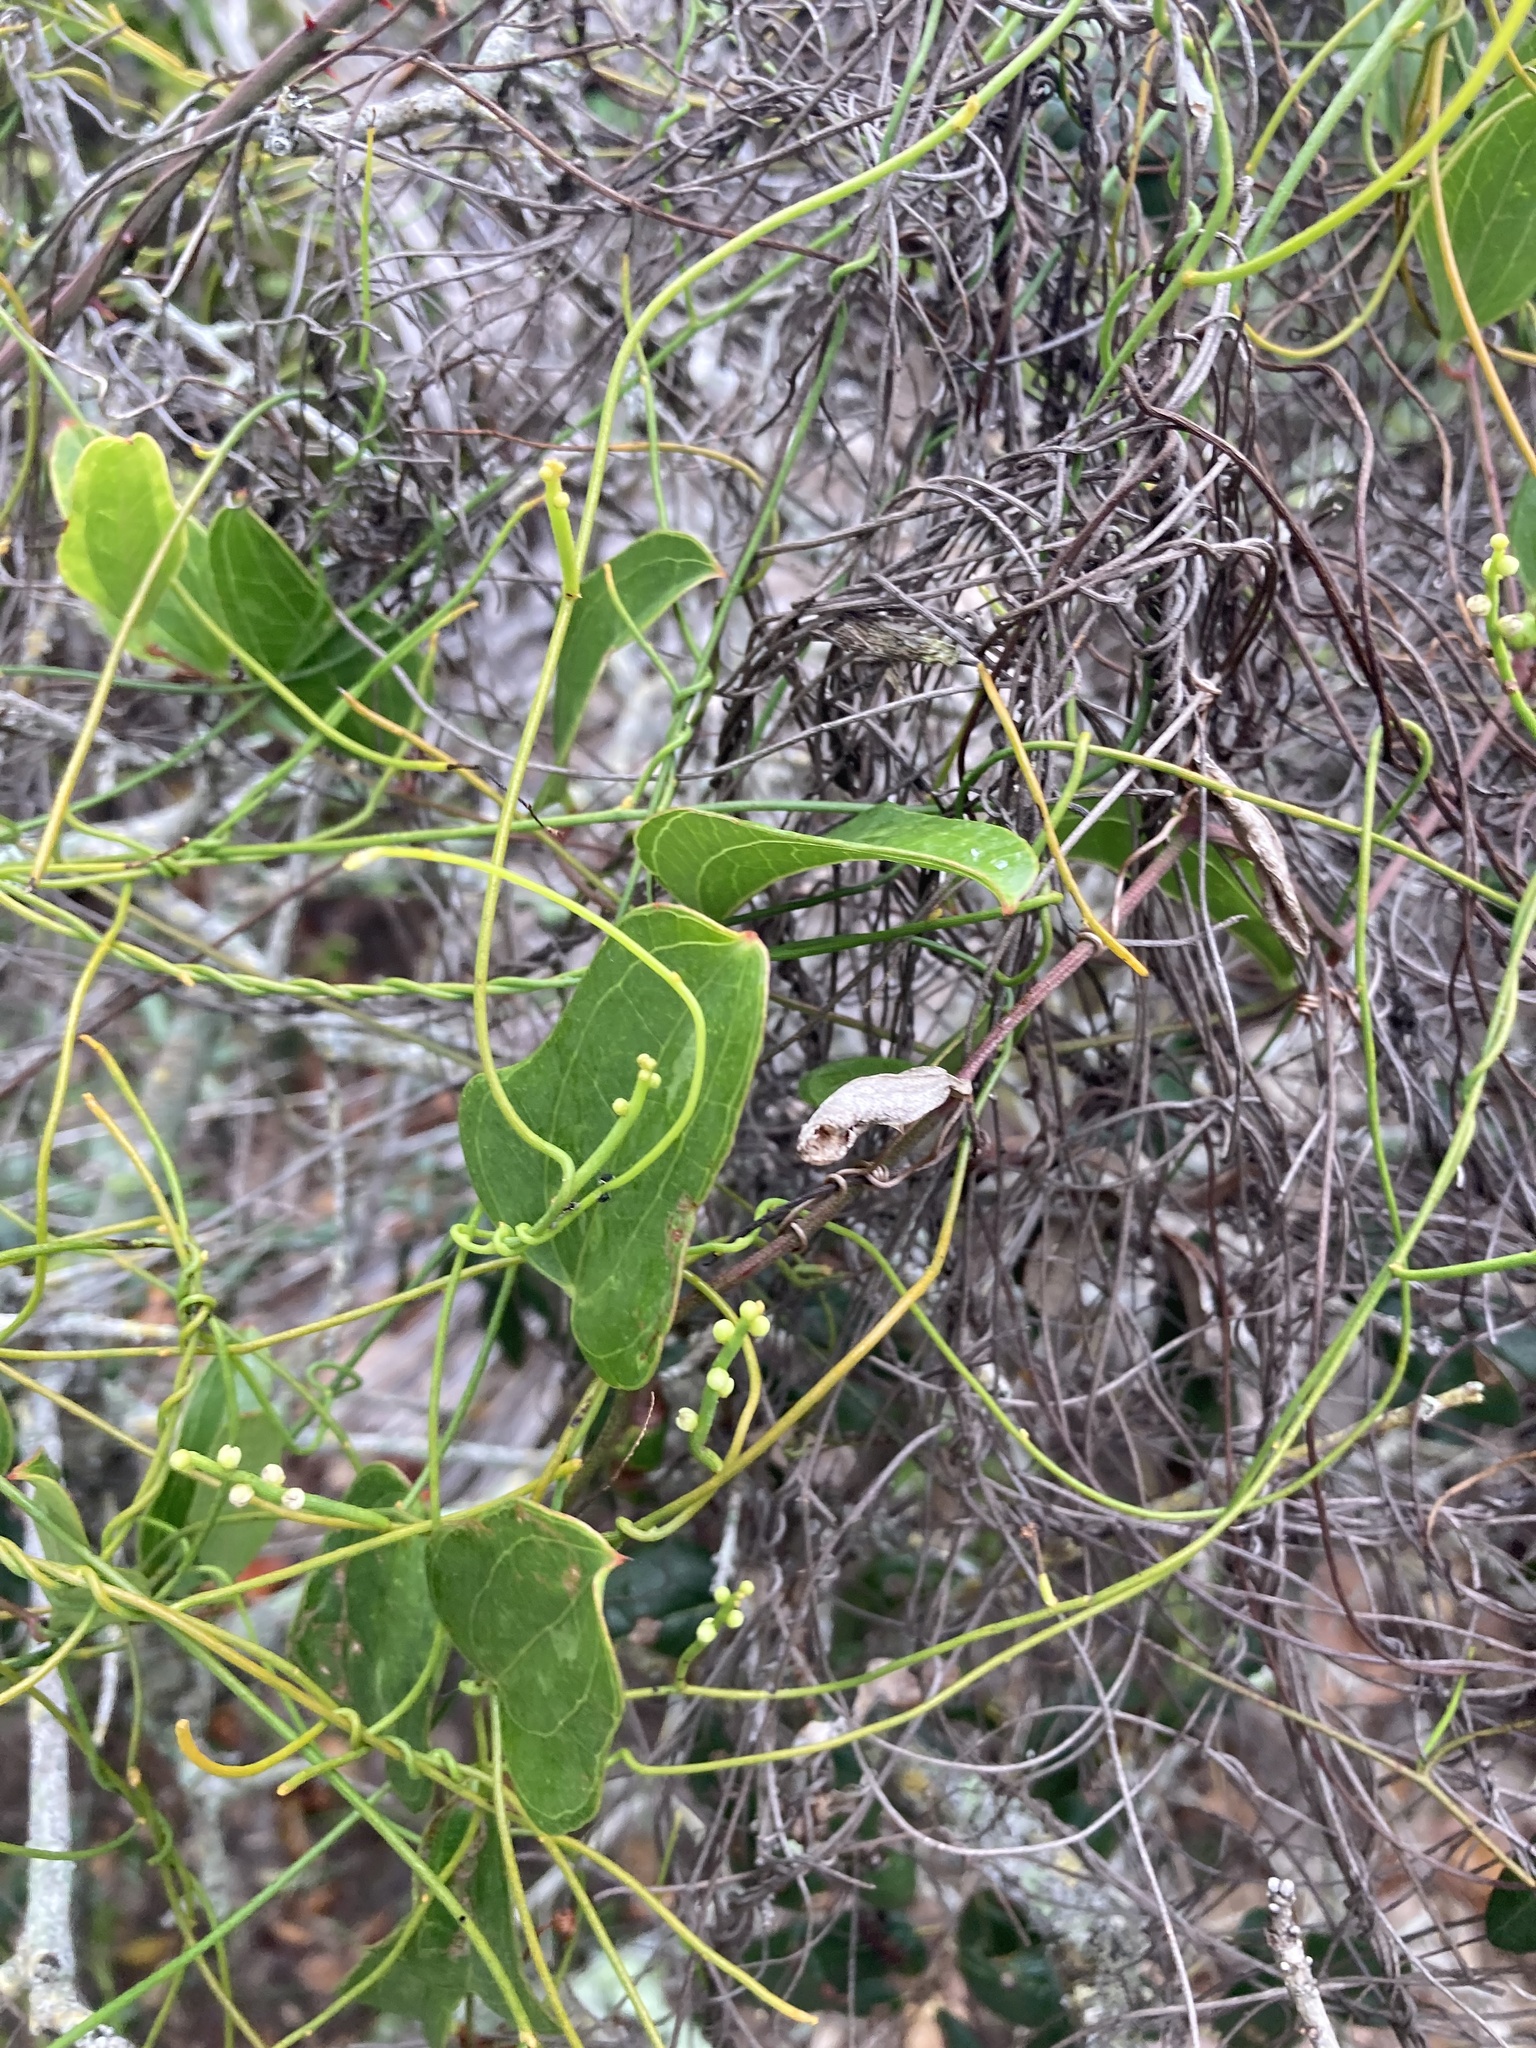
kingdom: Plantae
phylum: Tracheophyta
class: Magnoliopsida
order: Laurales
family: Lauraceae
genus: Cassytha
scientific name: Cassytha filiformis
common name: Dodder-laurel
